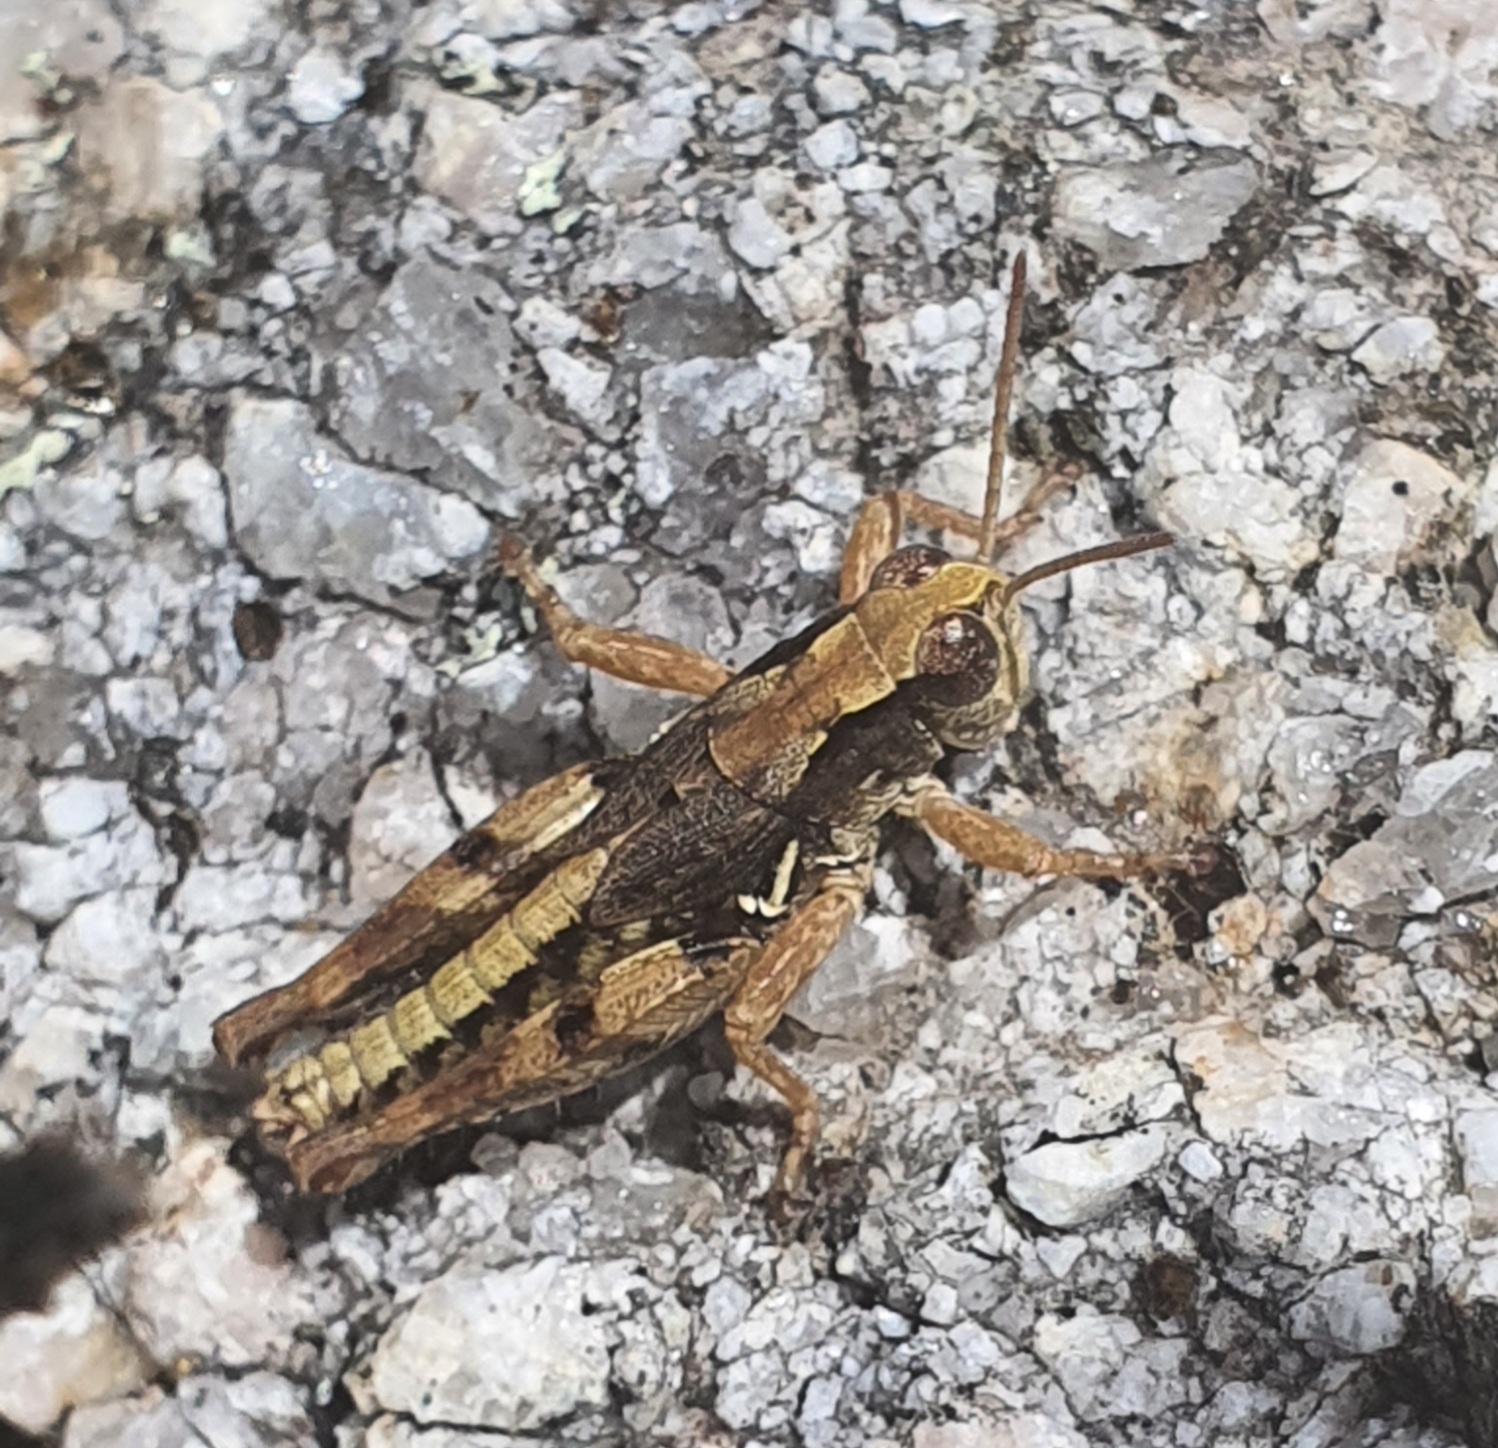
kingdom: Animalia
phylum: Arthropoda
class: Insecta
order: Orthoptera
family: Acrididae
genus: Phaulacridium
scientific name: Phaulacridium marginale
